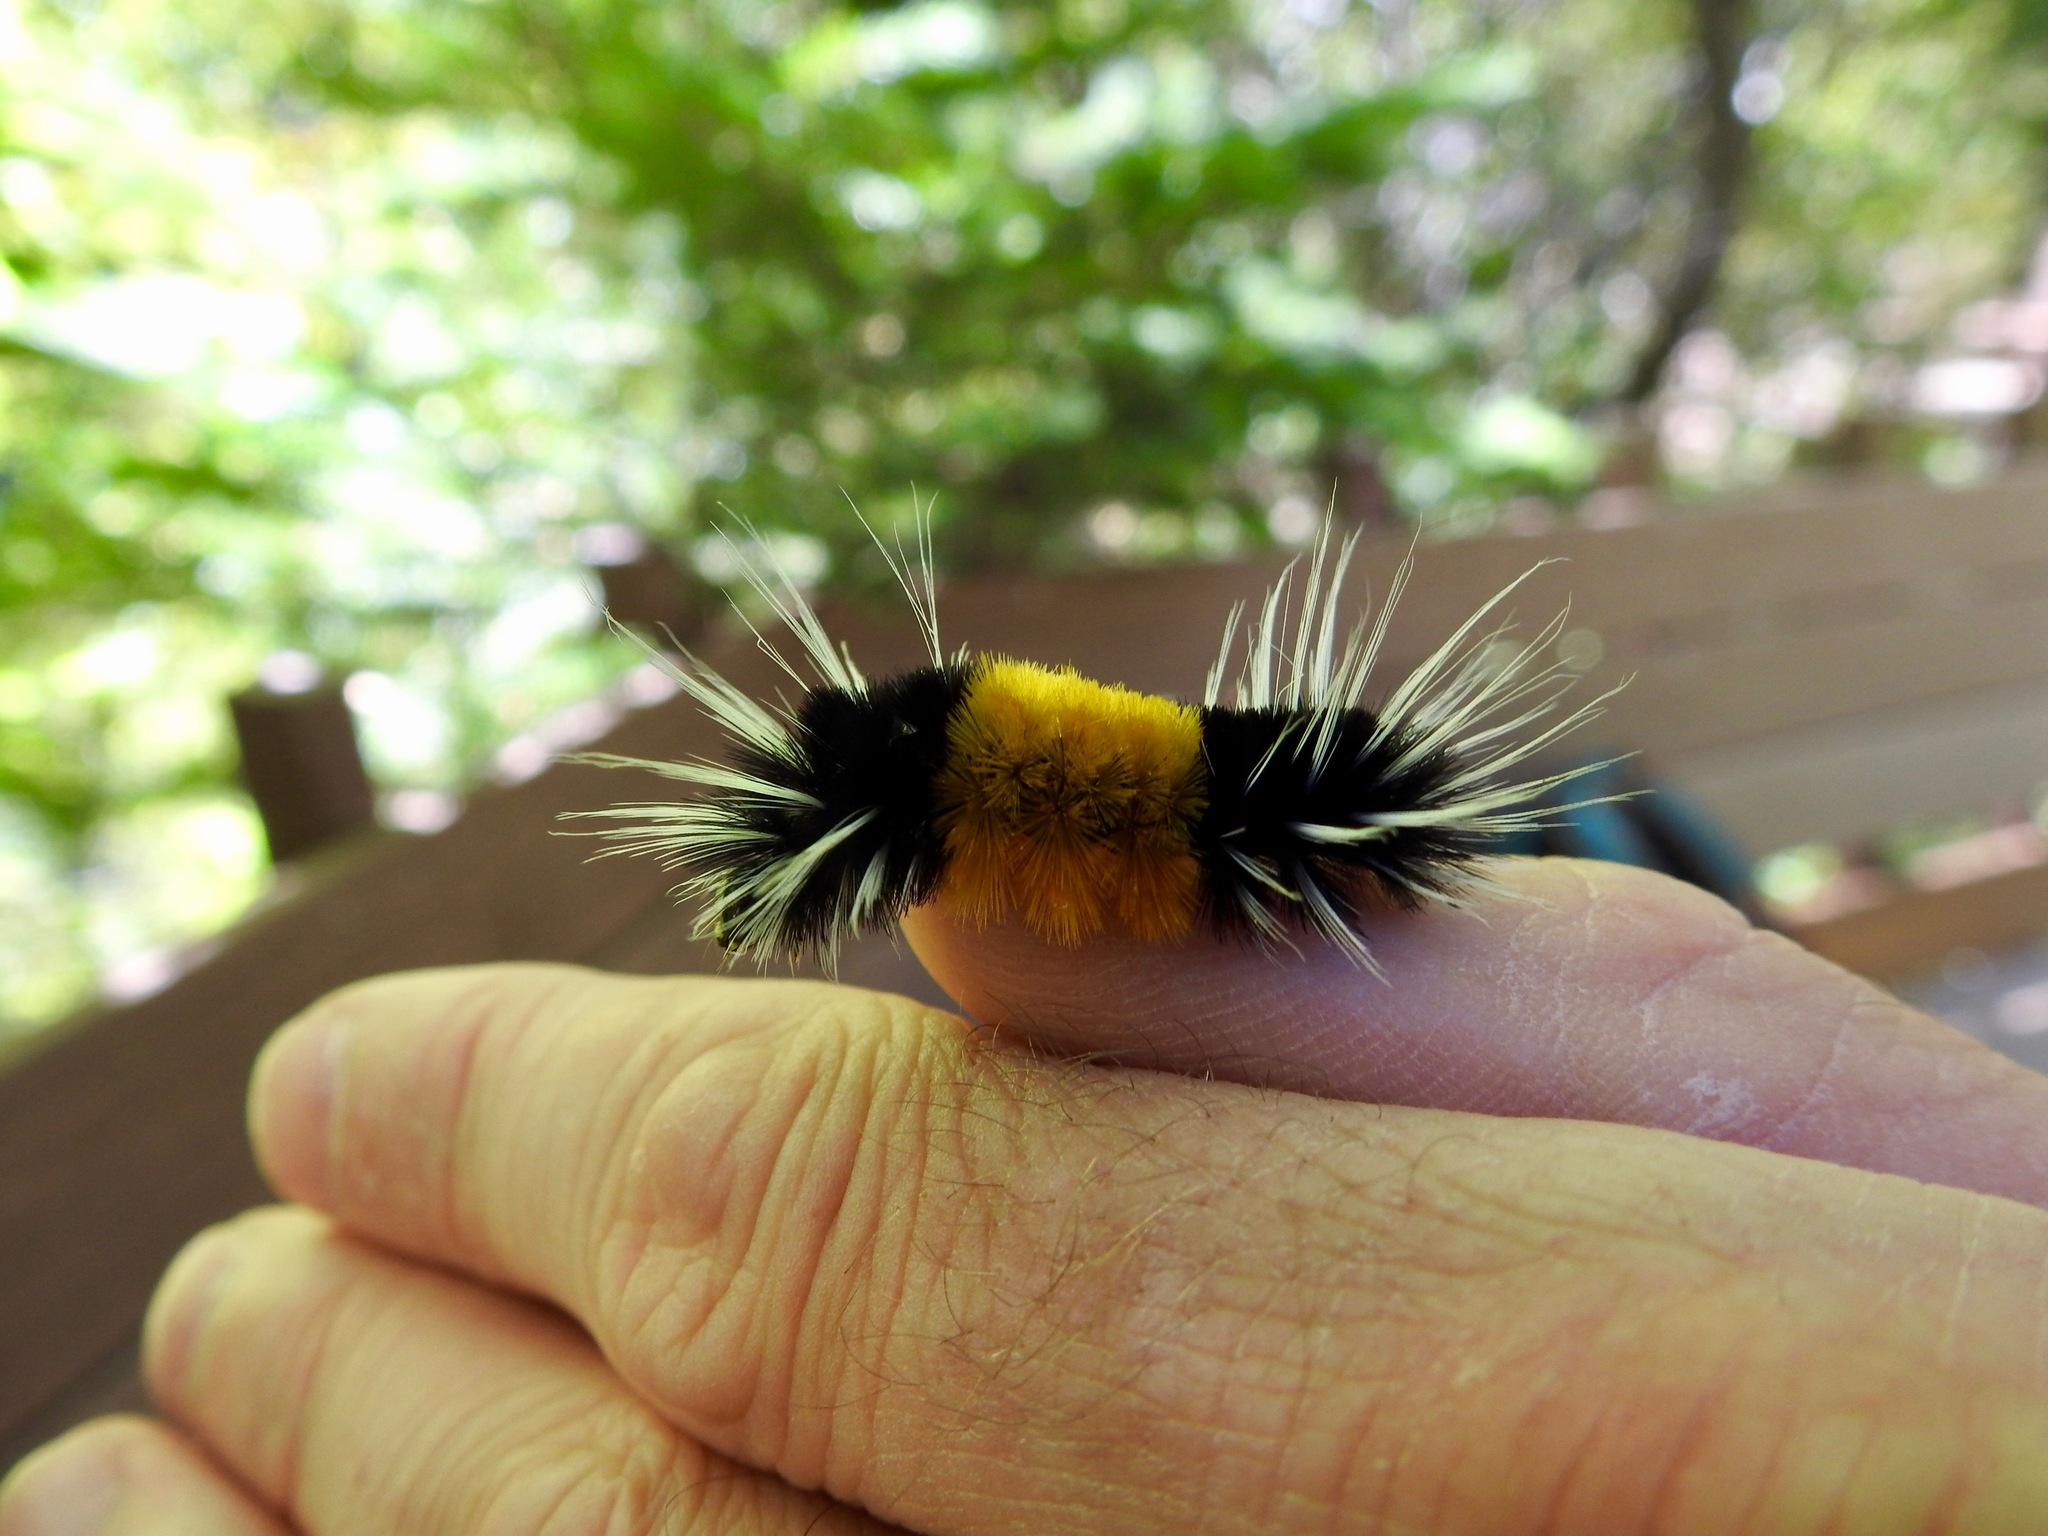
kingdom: Animalia
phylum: Arthropoda
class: Insecta
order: Lepidoptera
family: Erebidae
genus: Lophocampa
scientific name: Lophocampa maculata
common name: Spotted tussock moth
